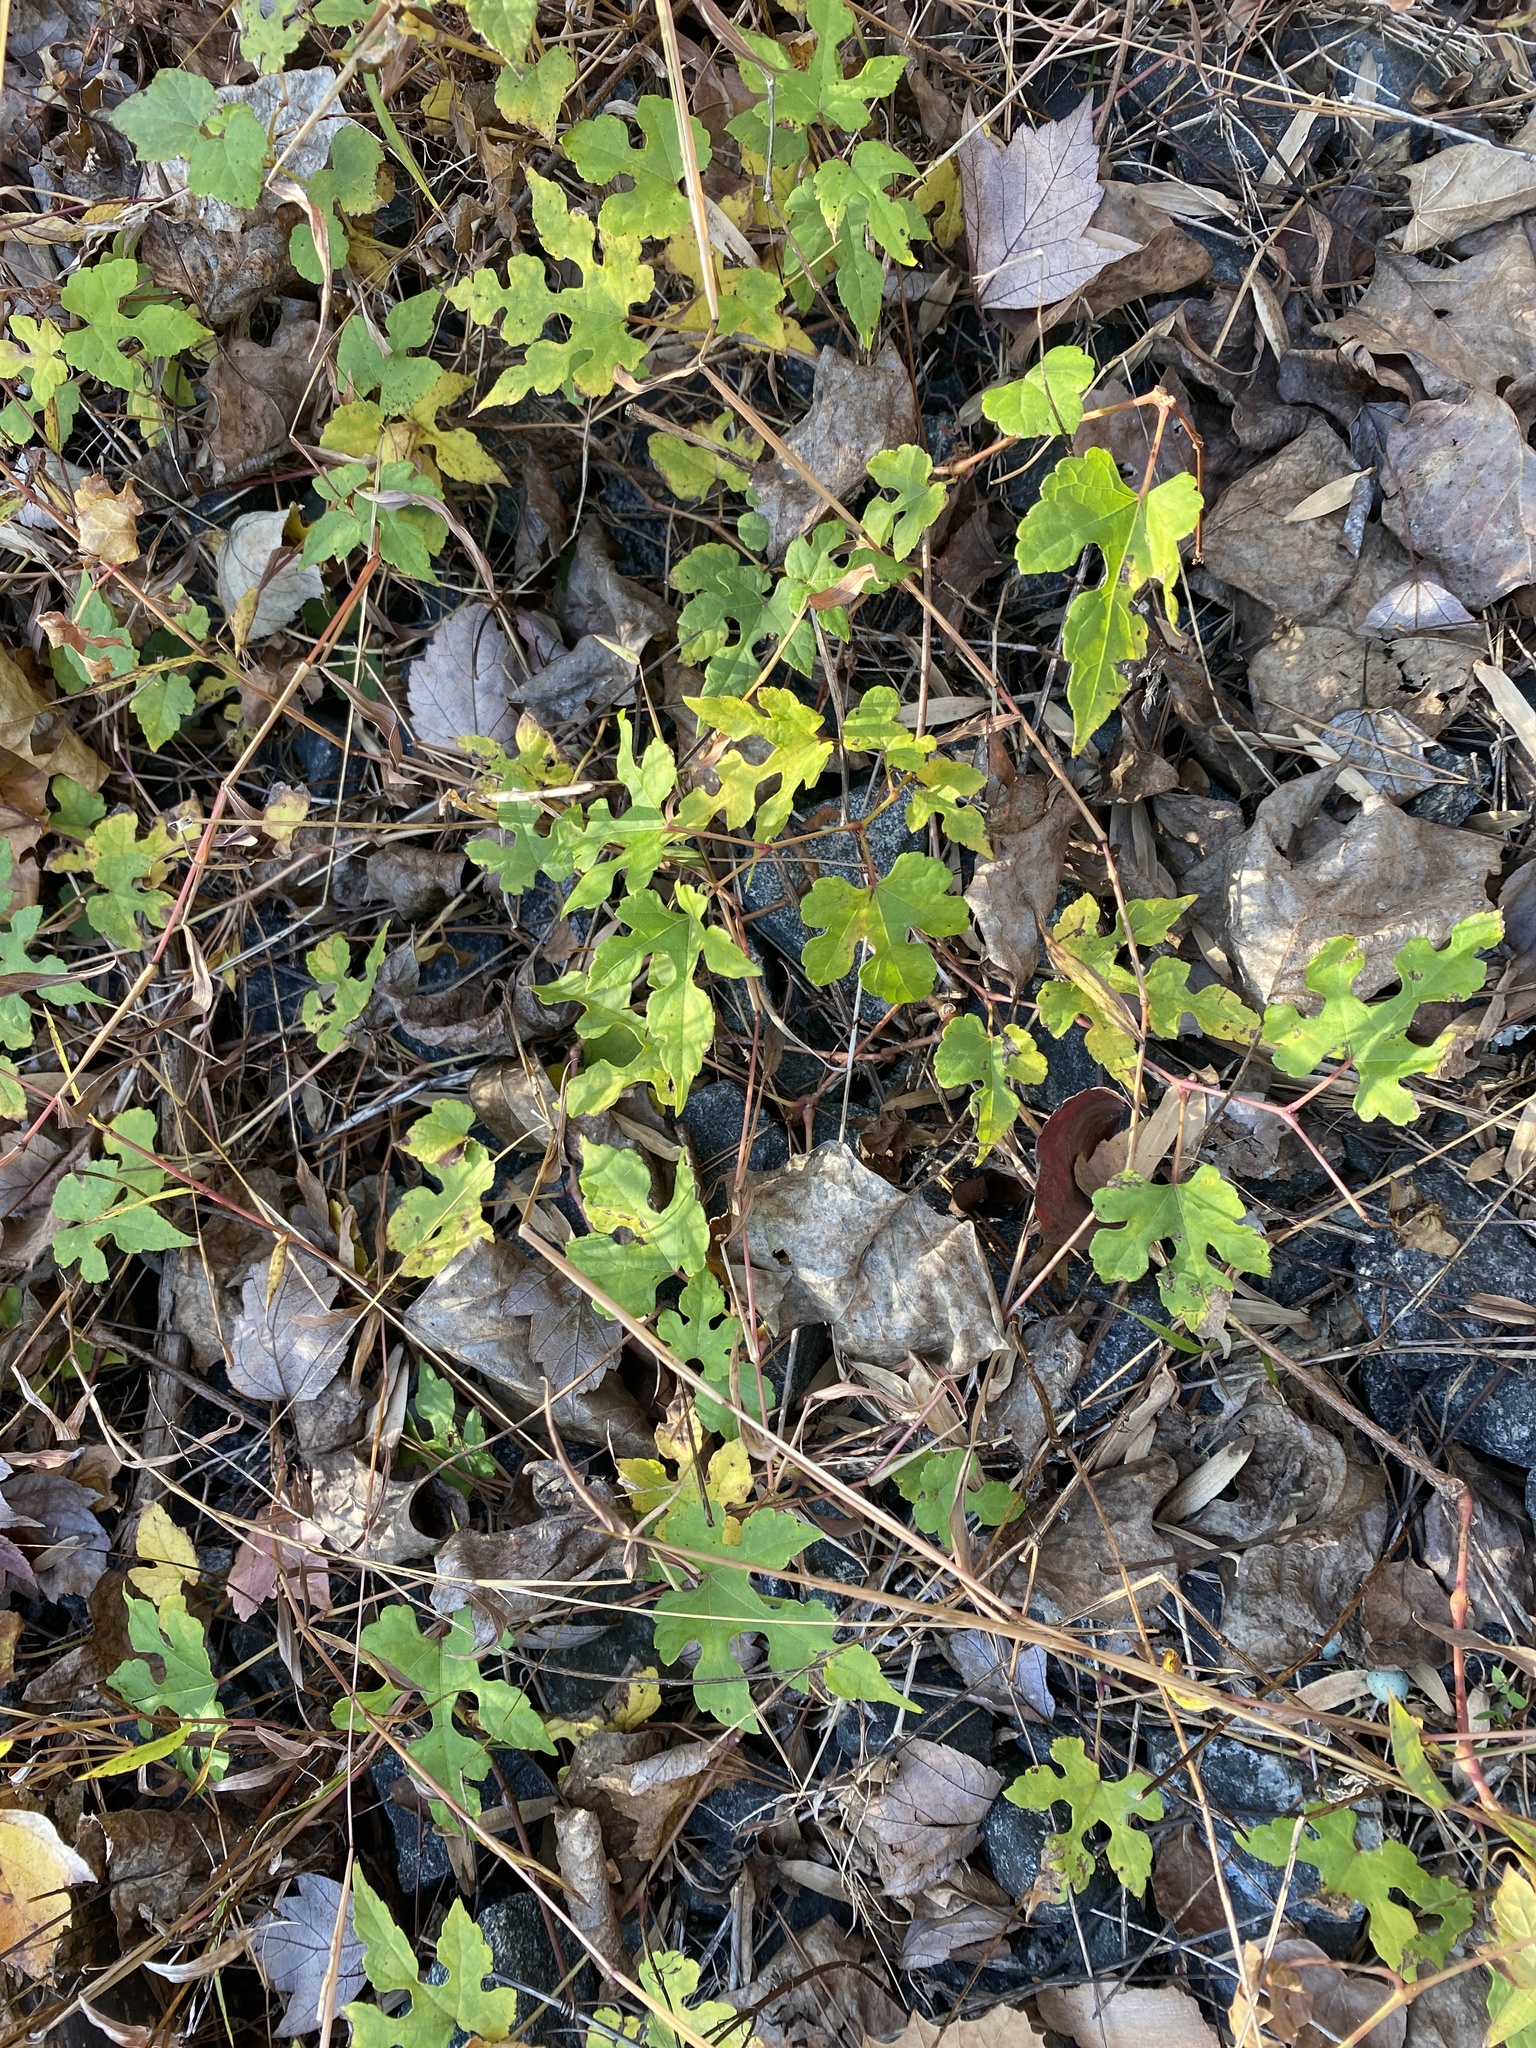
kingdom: Plantae
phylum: Tracheophyta
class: Magnoliopsida
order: Vitales
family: Vitaceae
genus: Ampelopsis
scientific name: Ampelopsis glandulosa
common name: Amur peppervine
